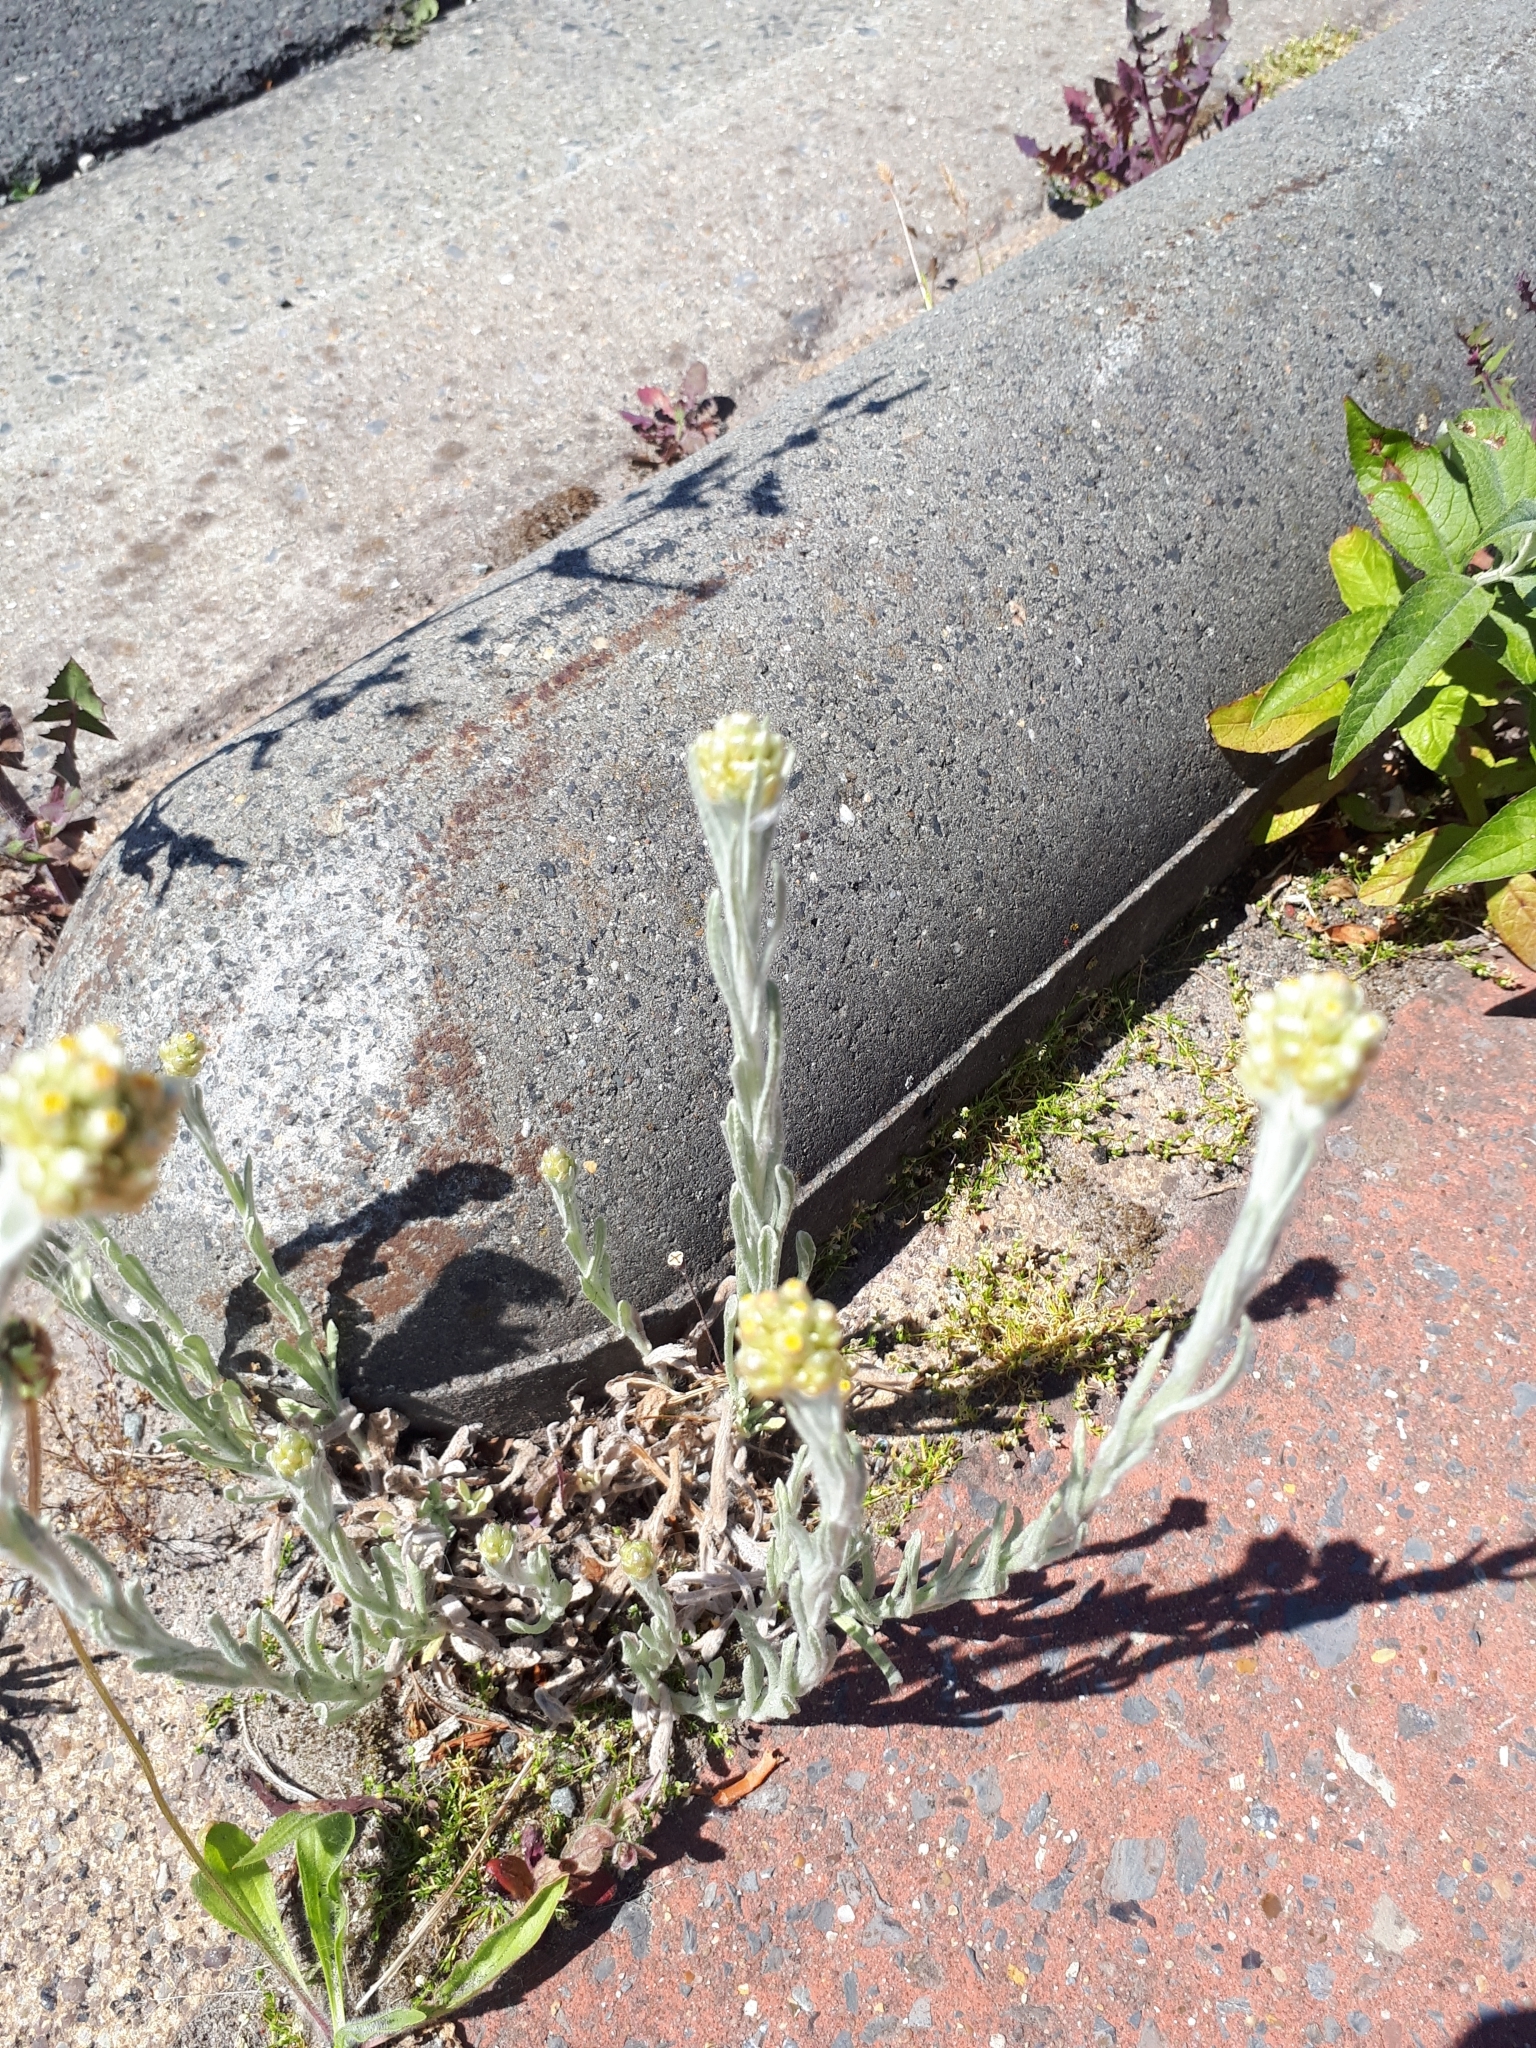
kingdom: Plantae
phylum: Tracheophyta
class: Magnoliopsida
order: Asterales
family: Asteraceae
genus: Helichrysum
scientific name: Helichrysum luteoalbum
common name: Daisy
